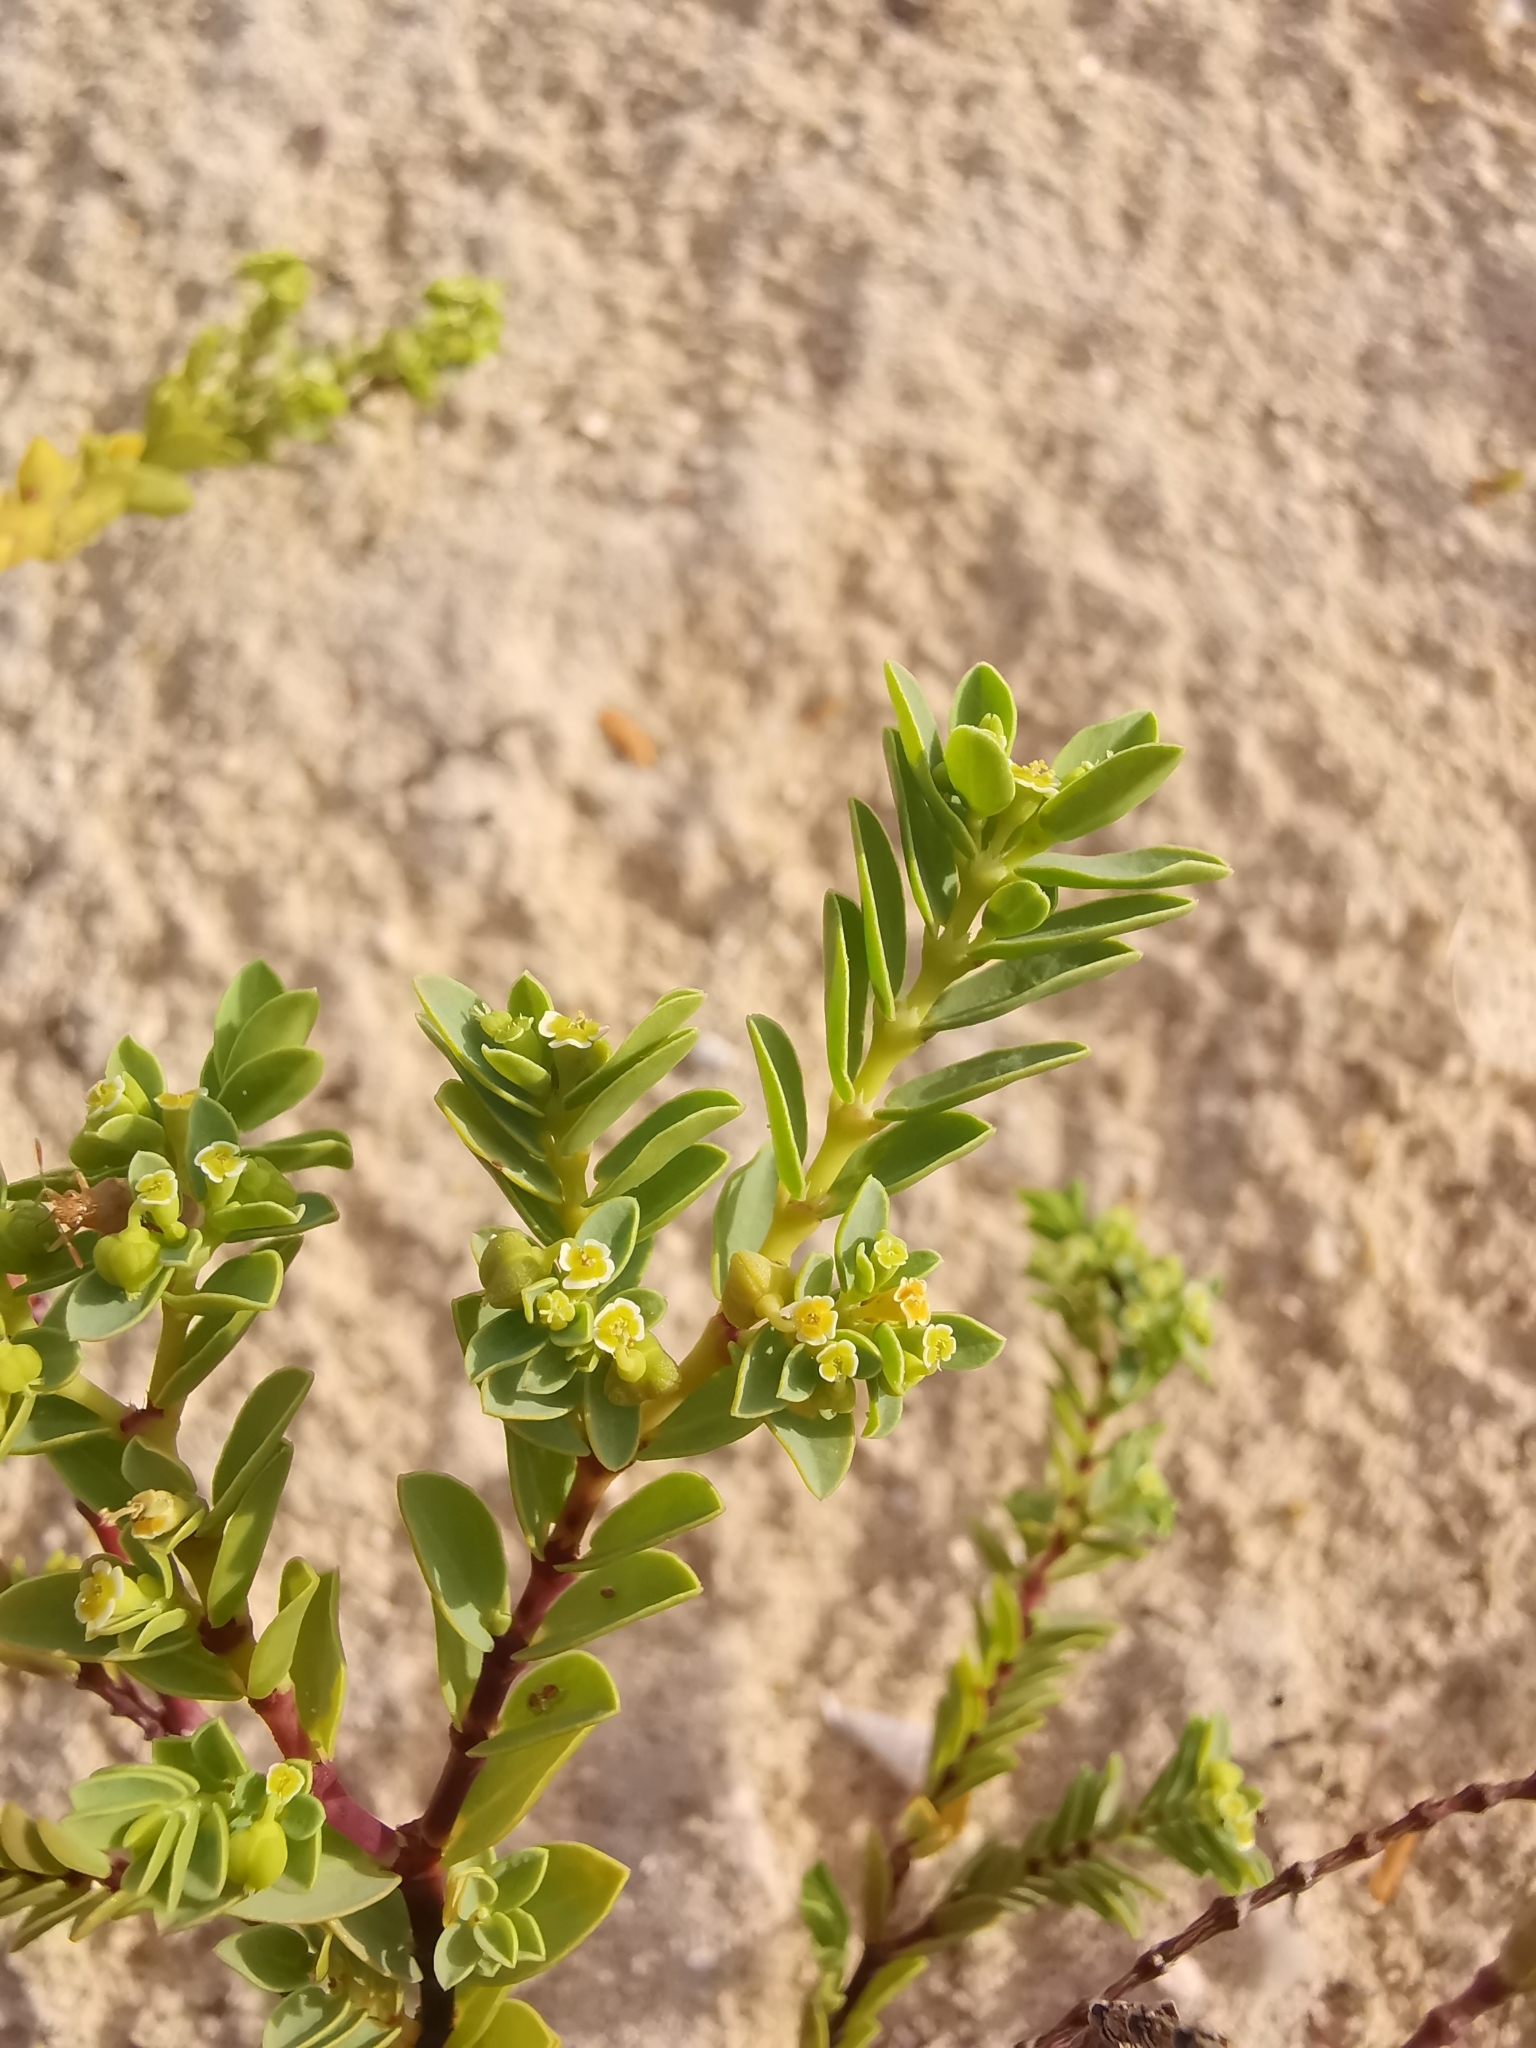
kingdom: Plantae
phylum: Tracheophyta
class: Magnoliopsida
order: Malpighiales
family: Euphorbiaceae
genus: Euphorbia
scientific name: Euphorbia mesembryanthemifolia
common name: Coastal beach sandmat
